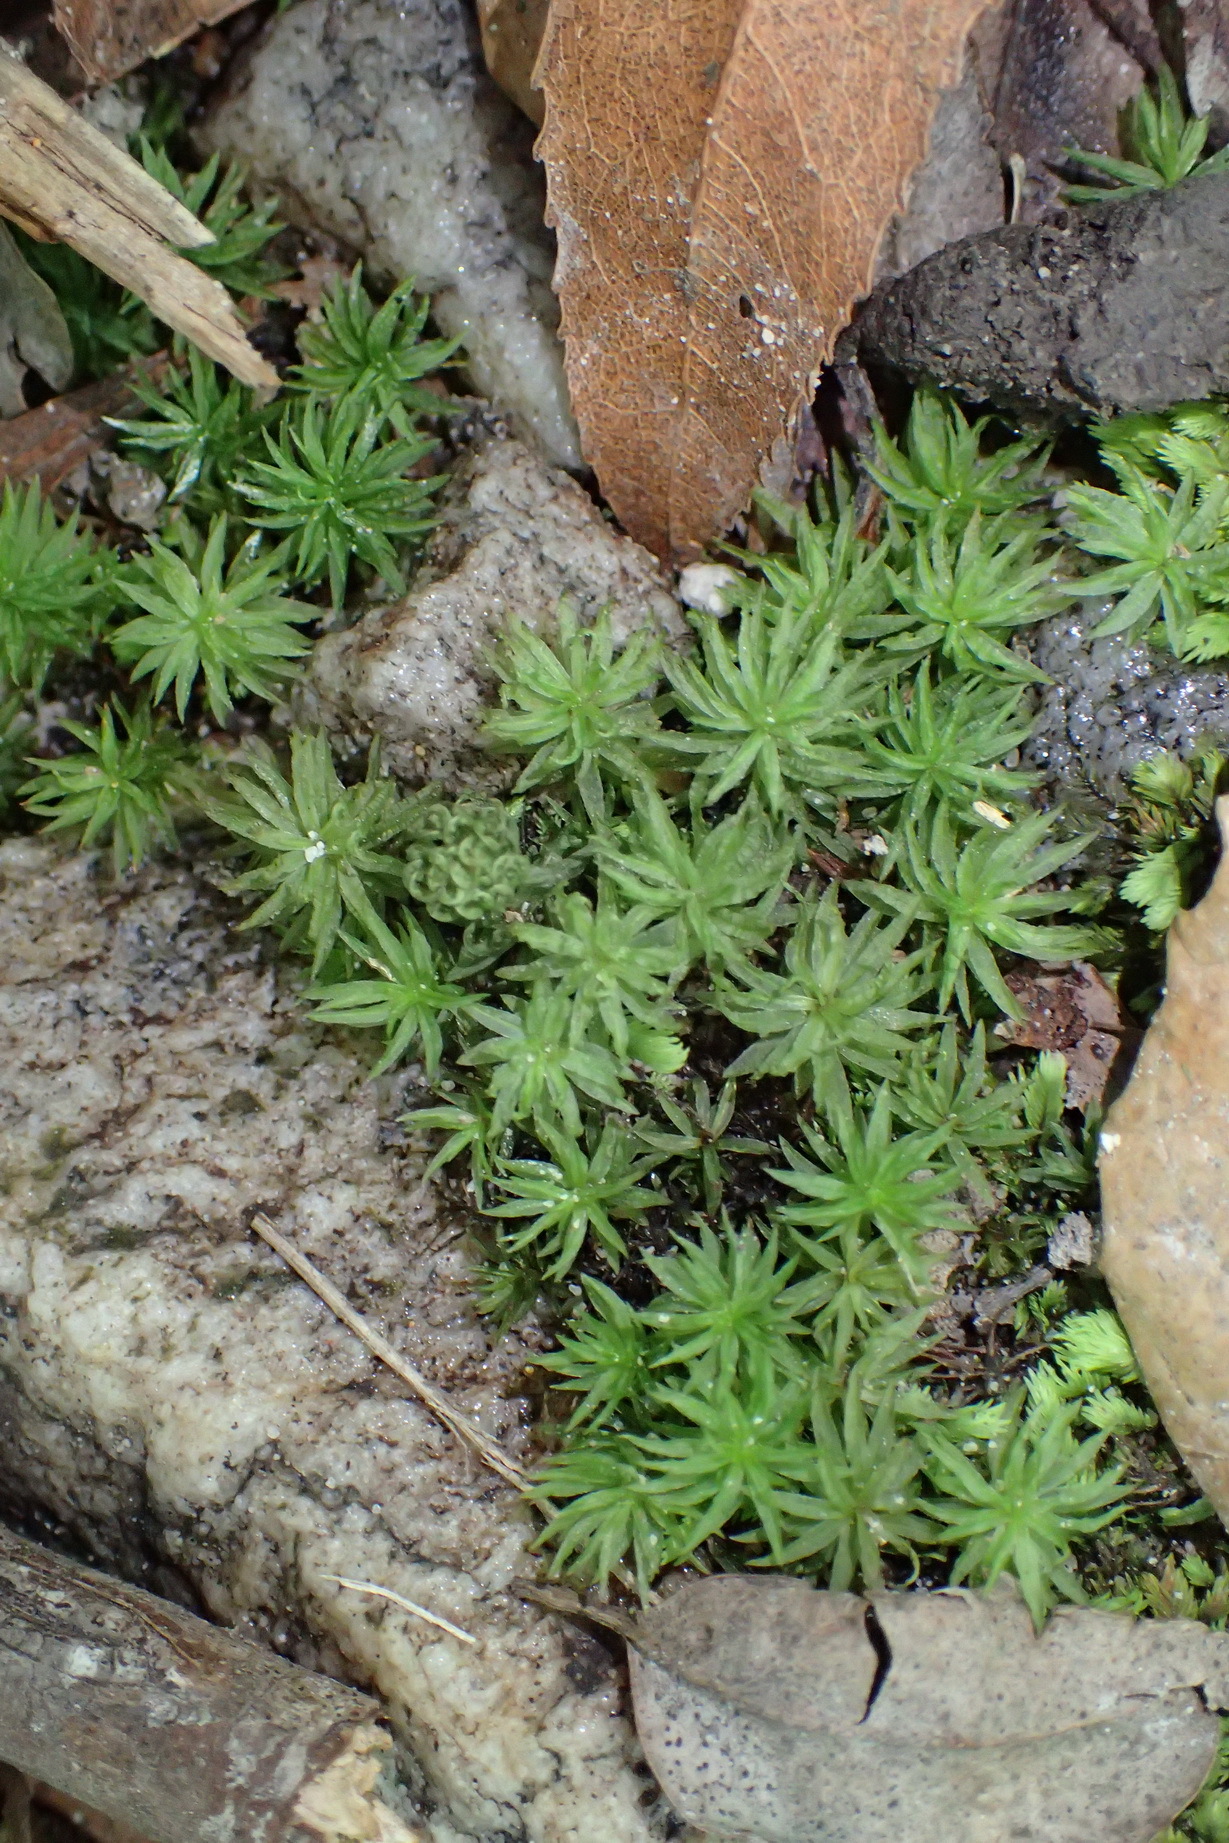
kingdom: Plantae
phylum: Bryophyta
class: Polytrichopsida
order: Polytrichales
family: Polytrichaceae
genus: Atrichum
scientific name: Atrichum androgynum
